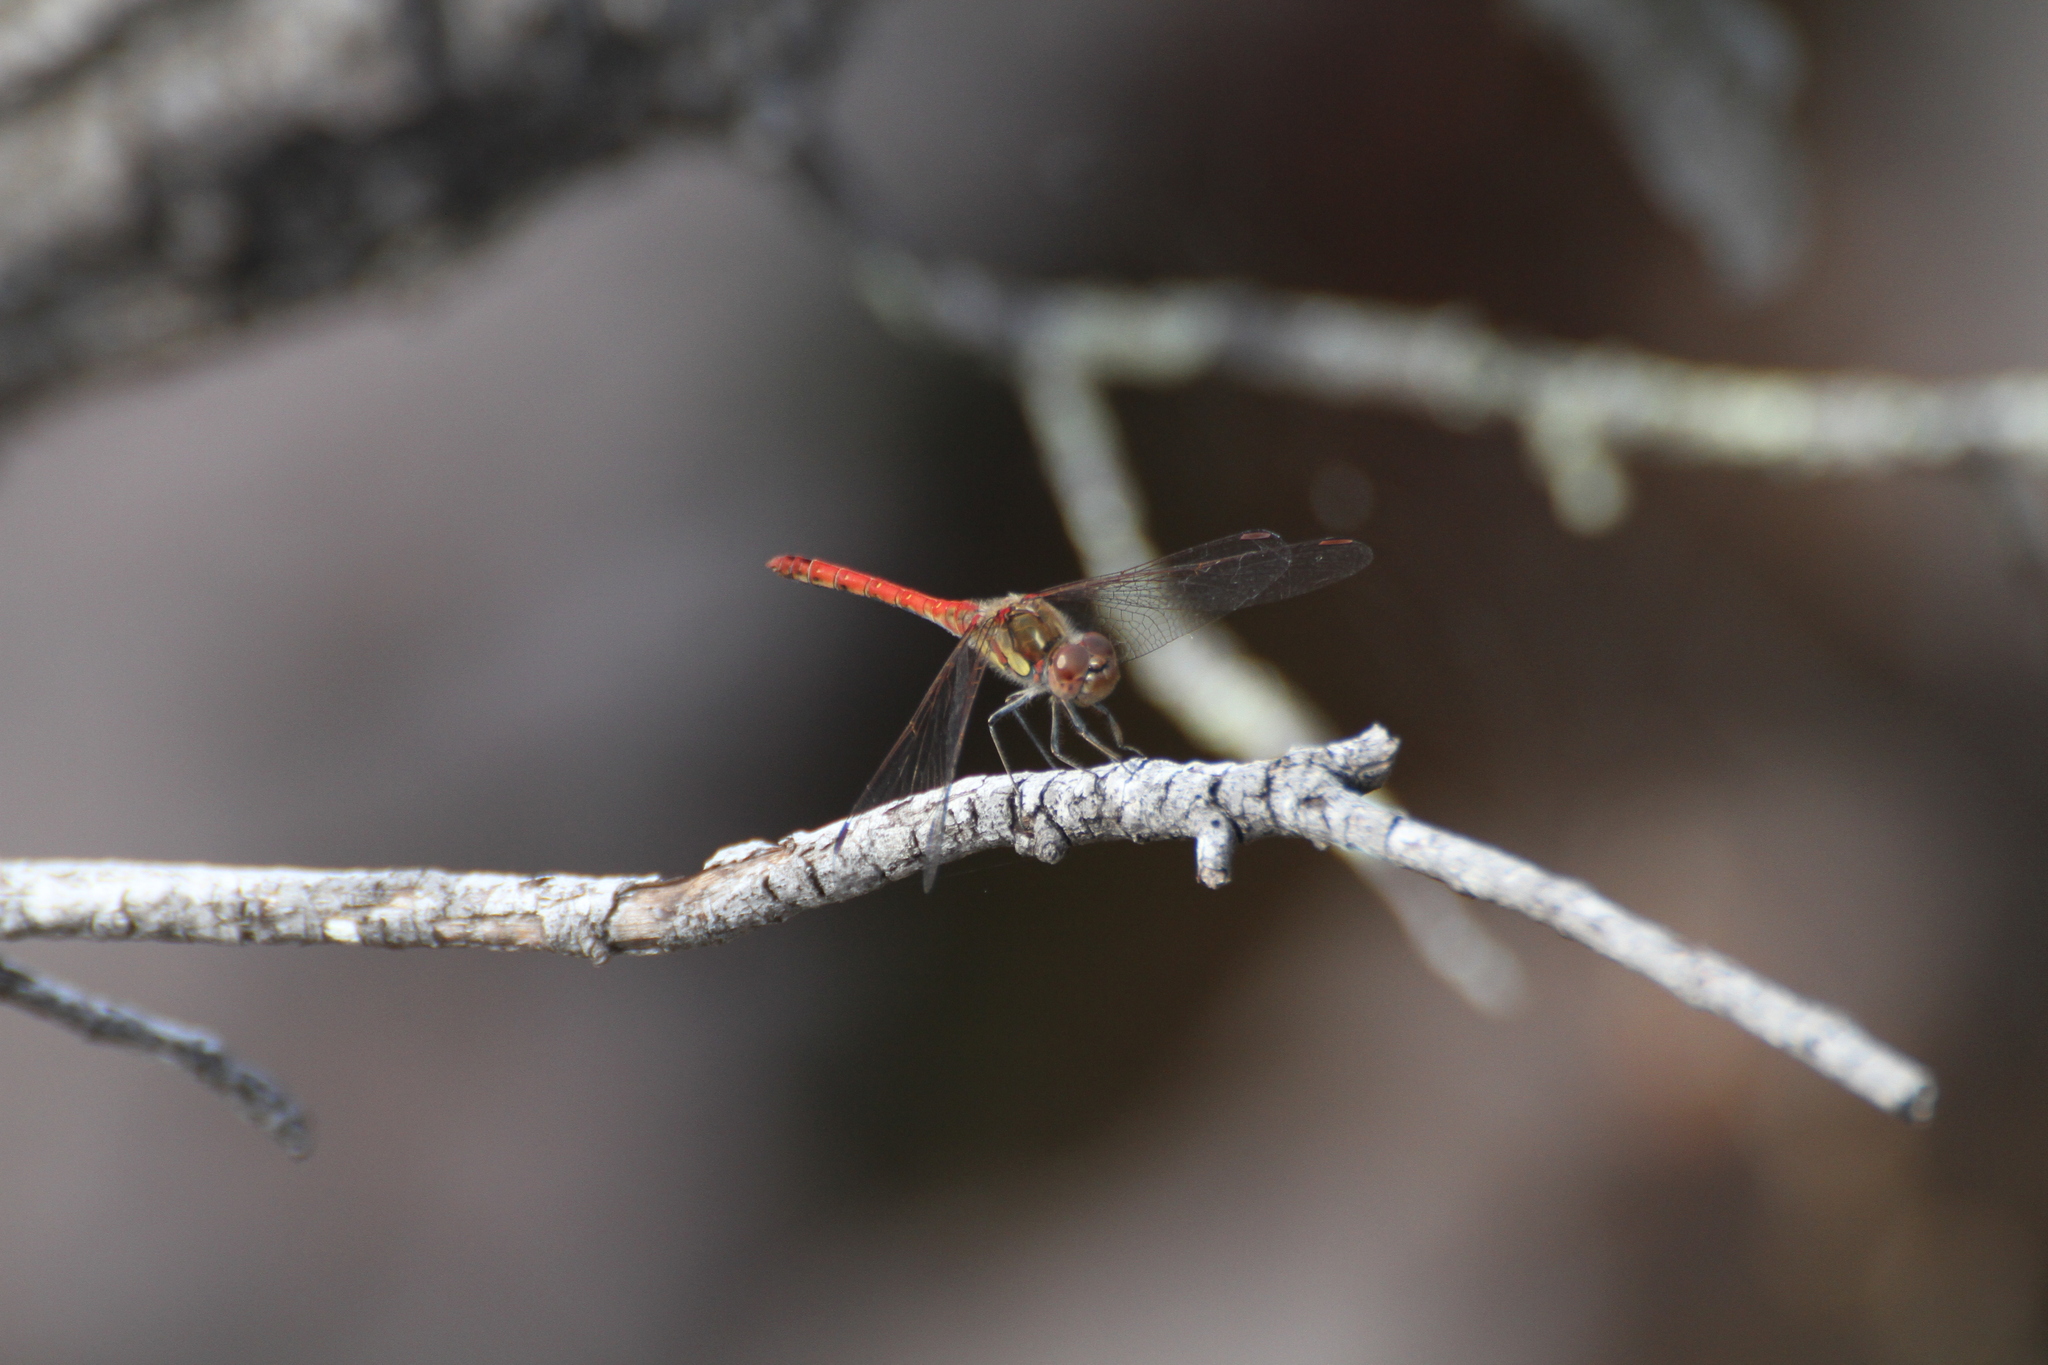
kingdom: Animalia
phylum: Arthropoda
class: Insecta
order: Odonata
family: Libellulidae
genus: Sympetrum
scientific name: Sympetrum striolatum
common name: Common darter
